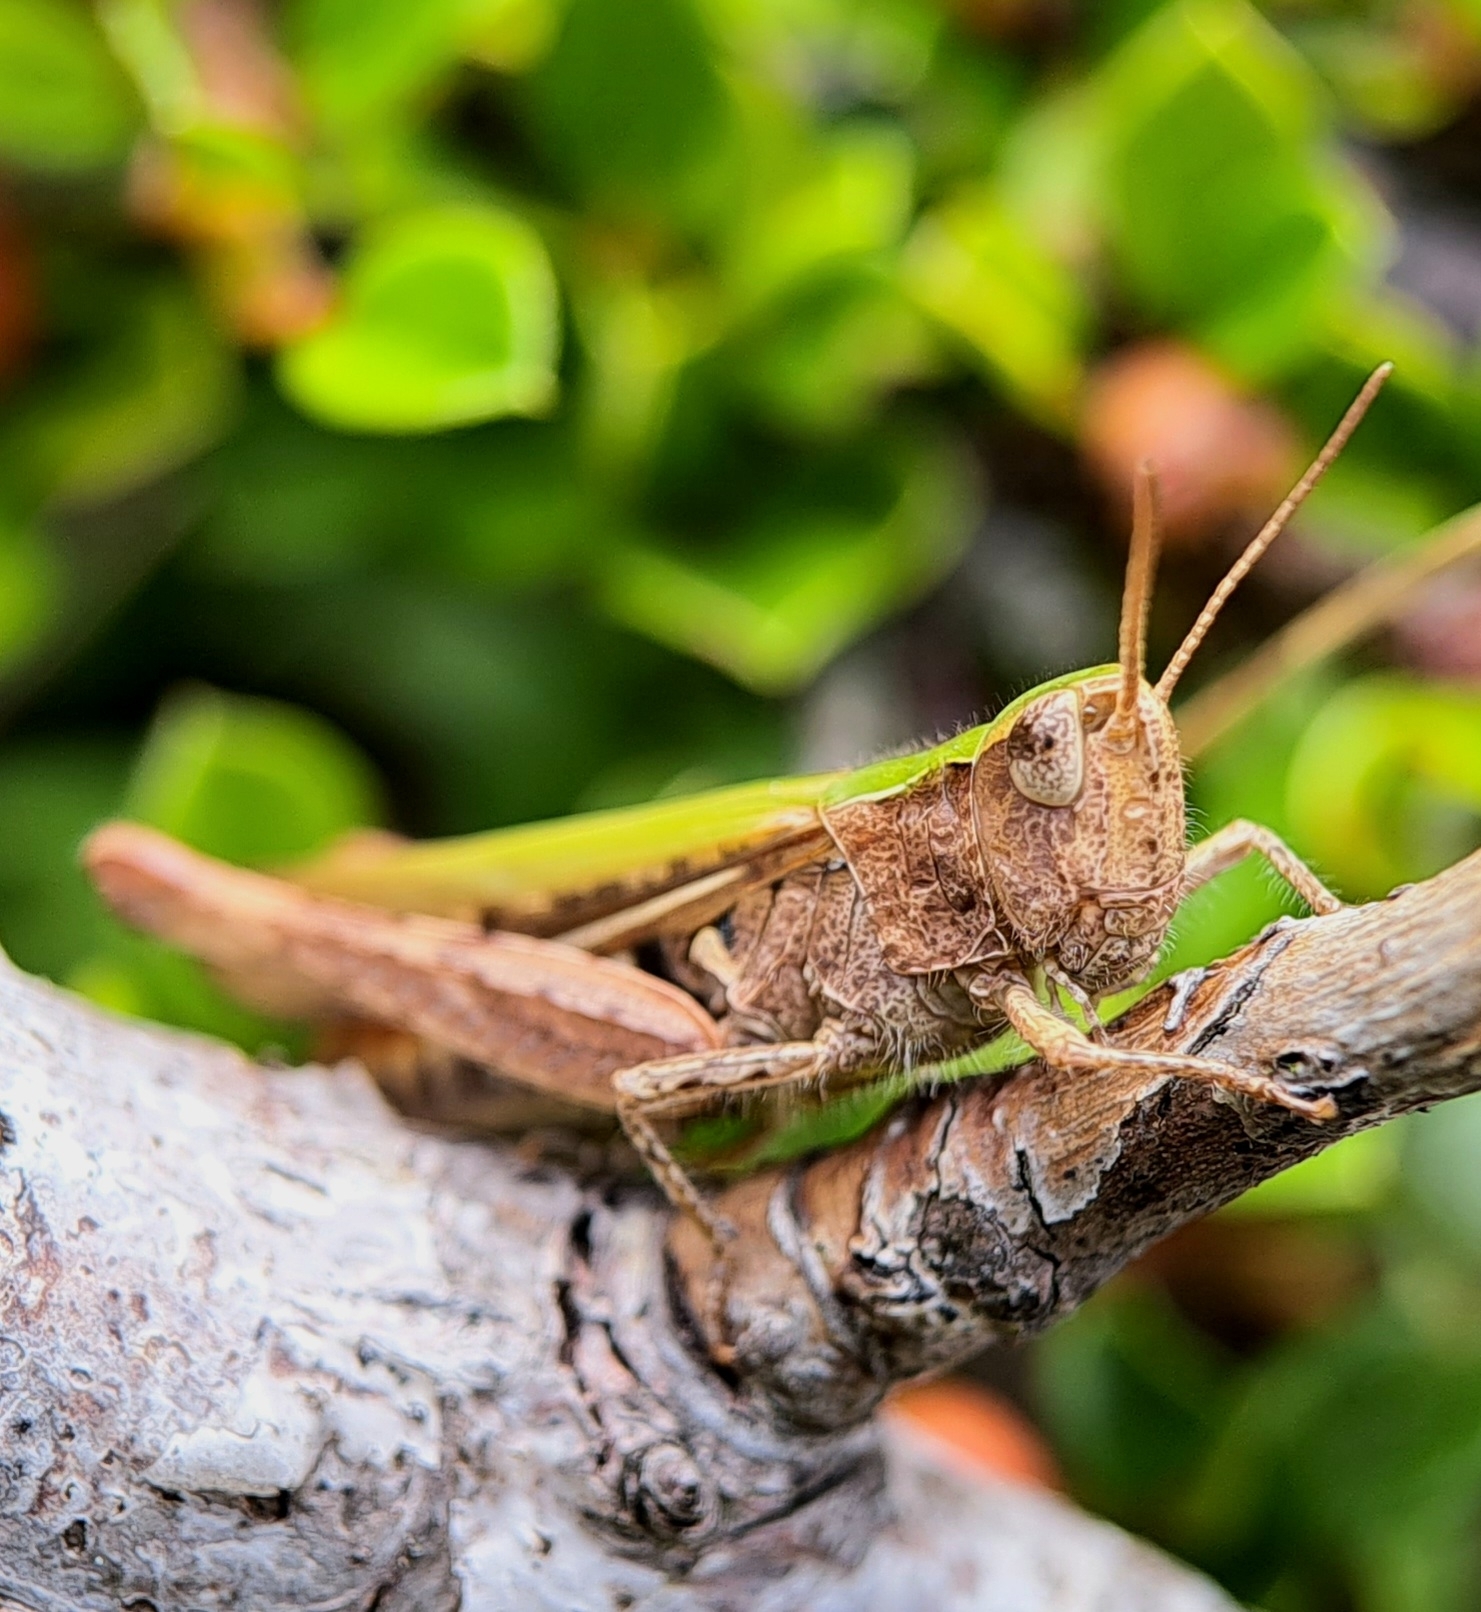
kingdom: Animalia
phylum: Arthropoda
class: Insecta
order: Orthoptera
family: Acrididae
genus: Chorthippus
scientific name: Chorthippus brunneus
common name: Field grasshopper
